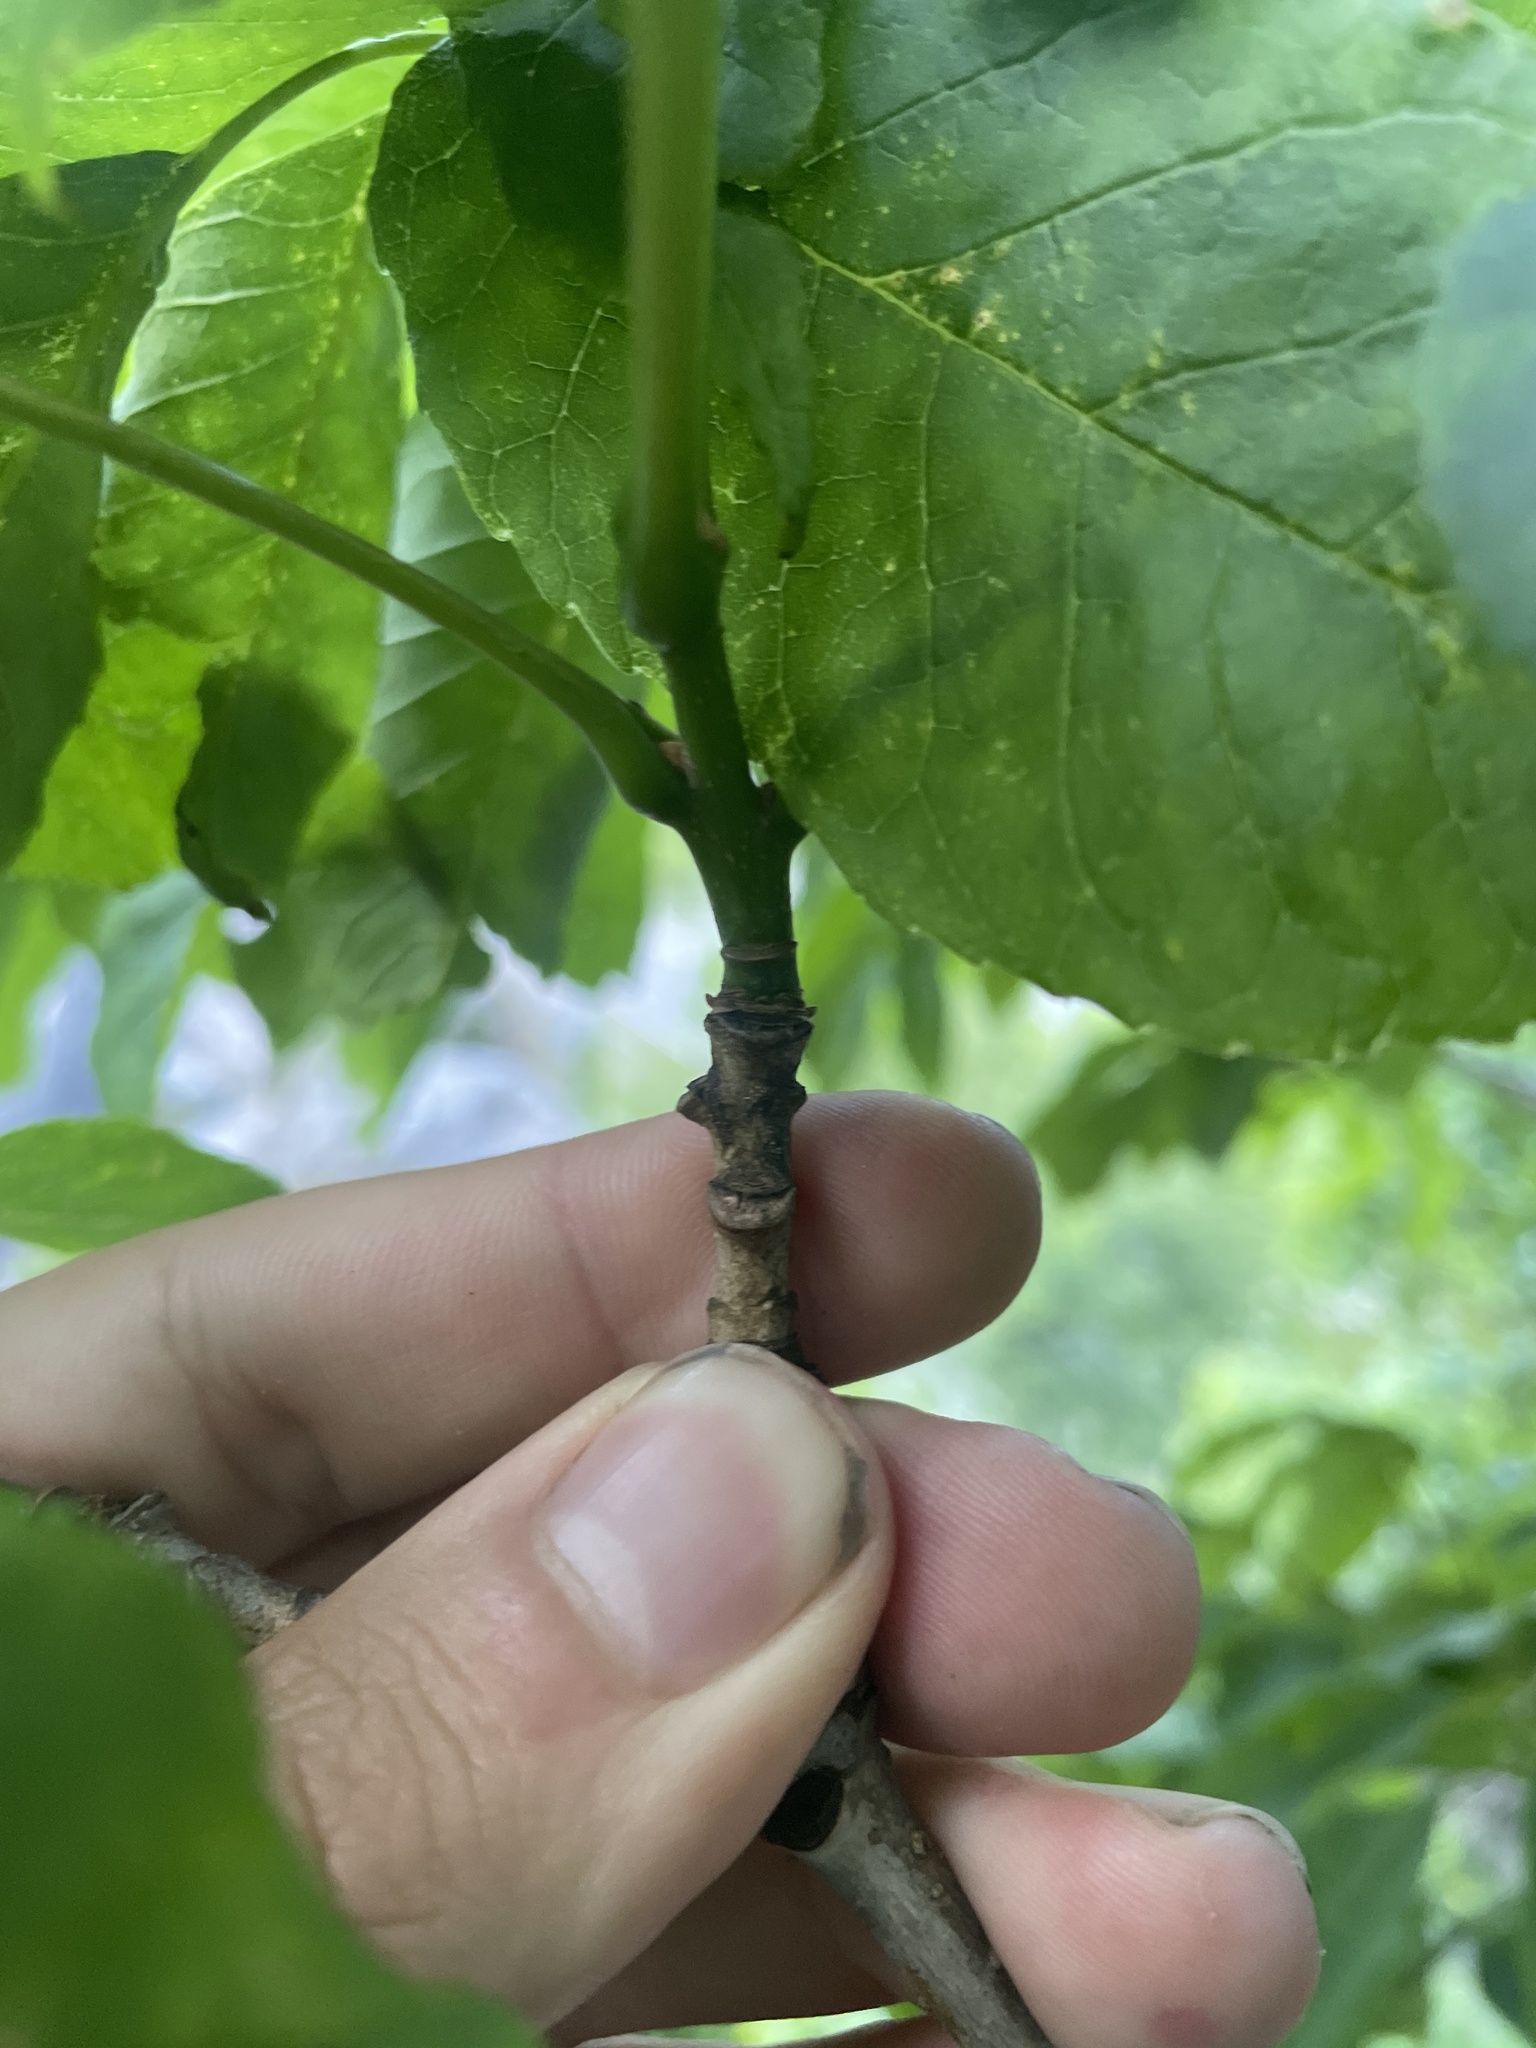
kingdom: Plantae
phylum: Tracheophyta
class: Magnoliopsida
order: Lamiales
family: Oleaceae
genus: Fraxinus
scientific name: Fraxinus americana
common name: White ash
